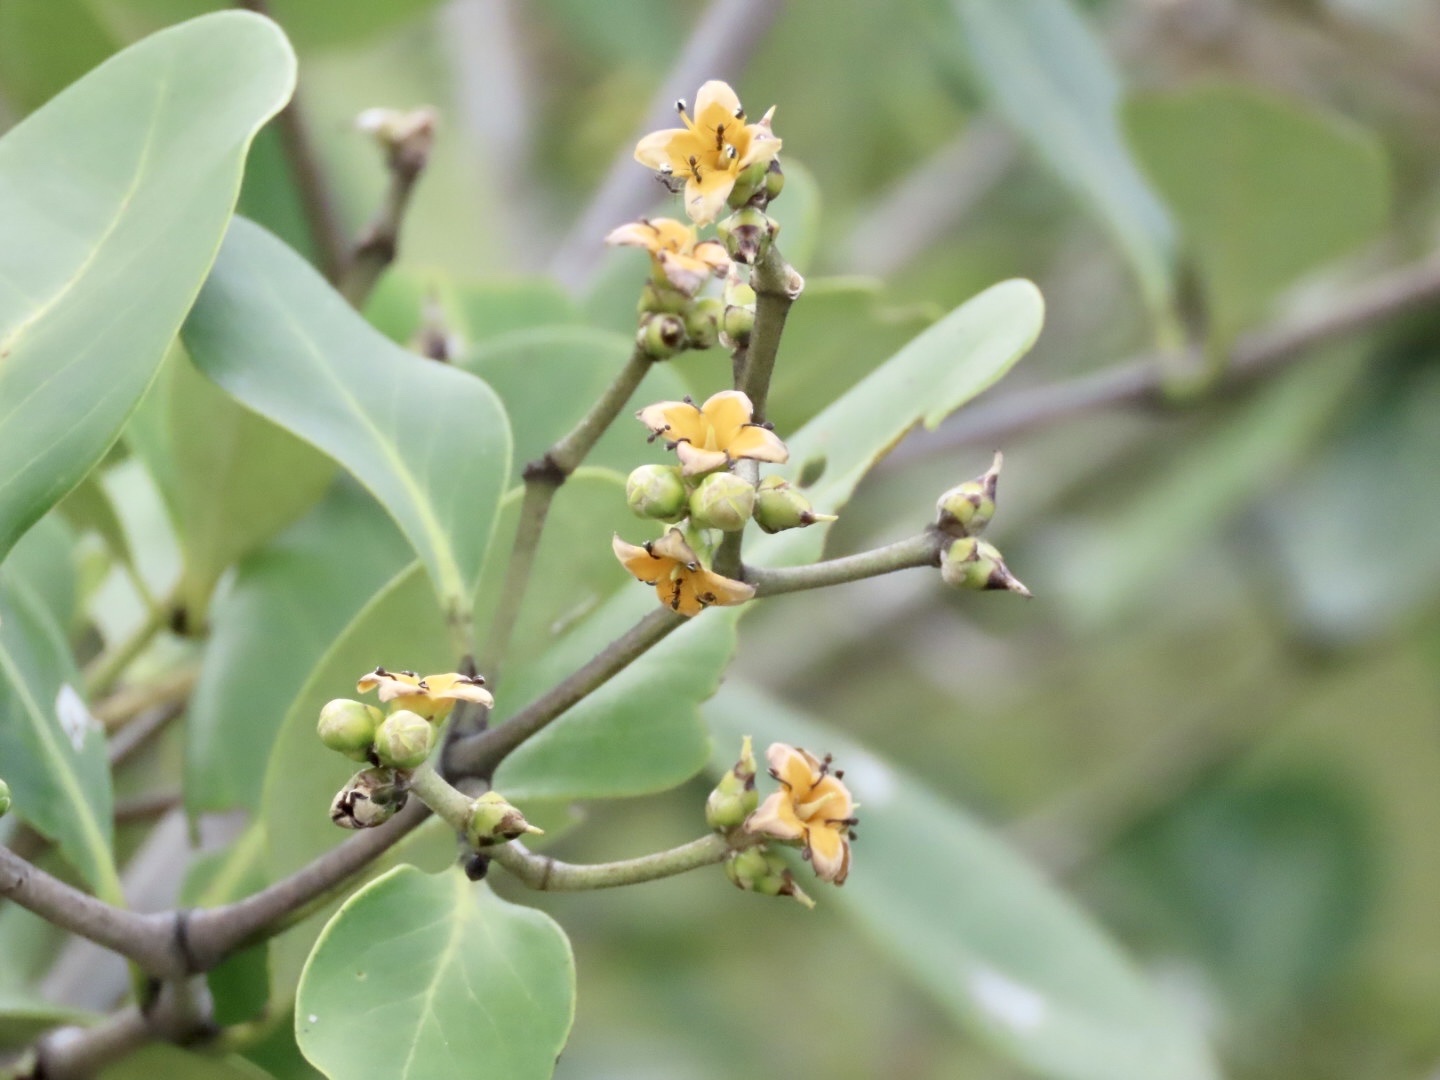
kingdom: Plantae
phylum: Tracheophyta
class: Magnoliopsida
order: Lamiales
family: Acanthaceae
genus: Avicennia
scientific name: Avicennia marina
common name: Gray mangrove
